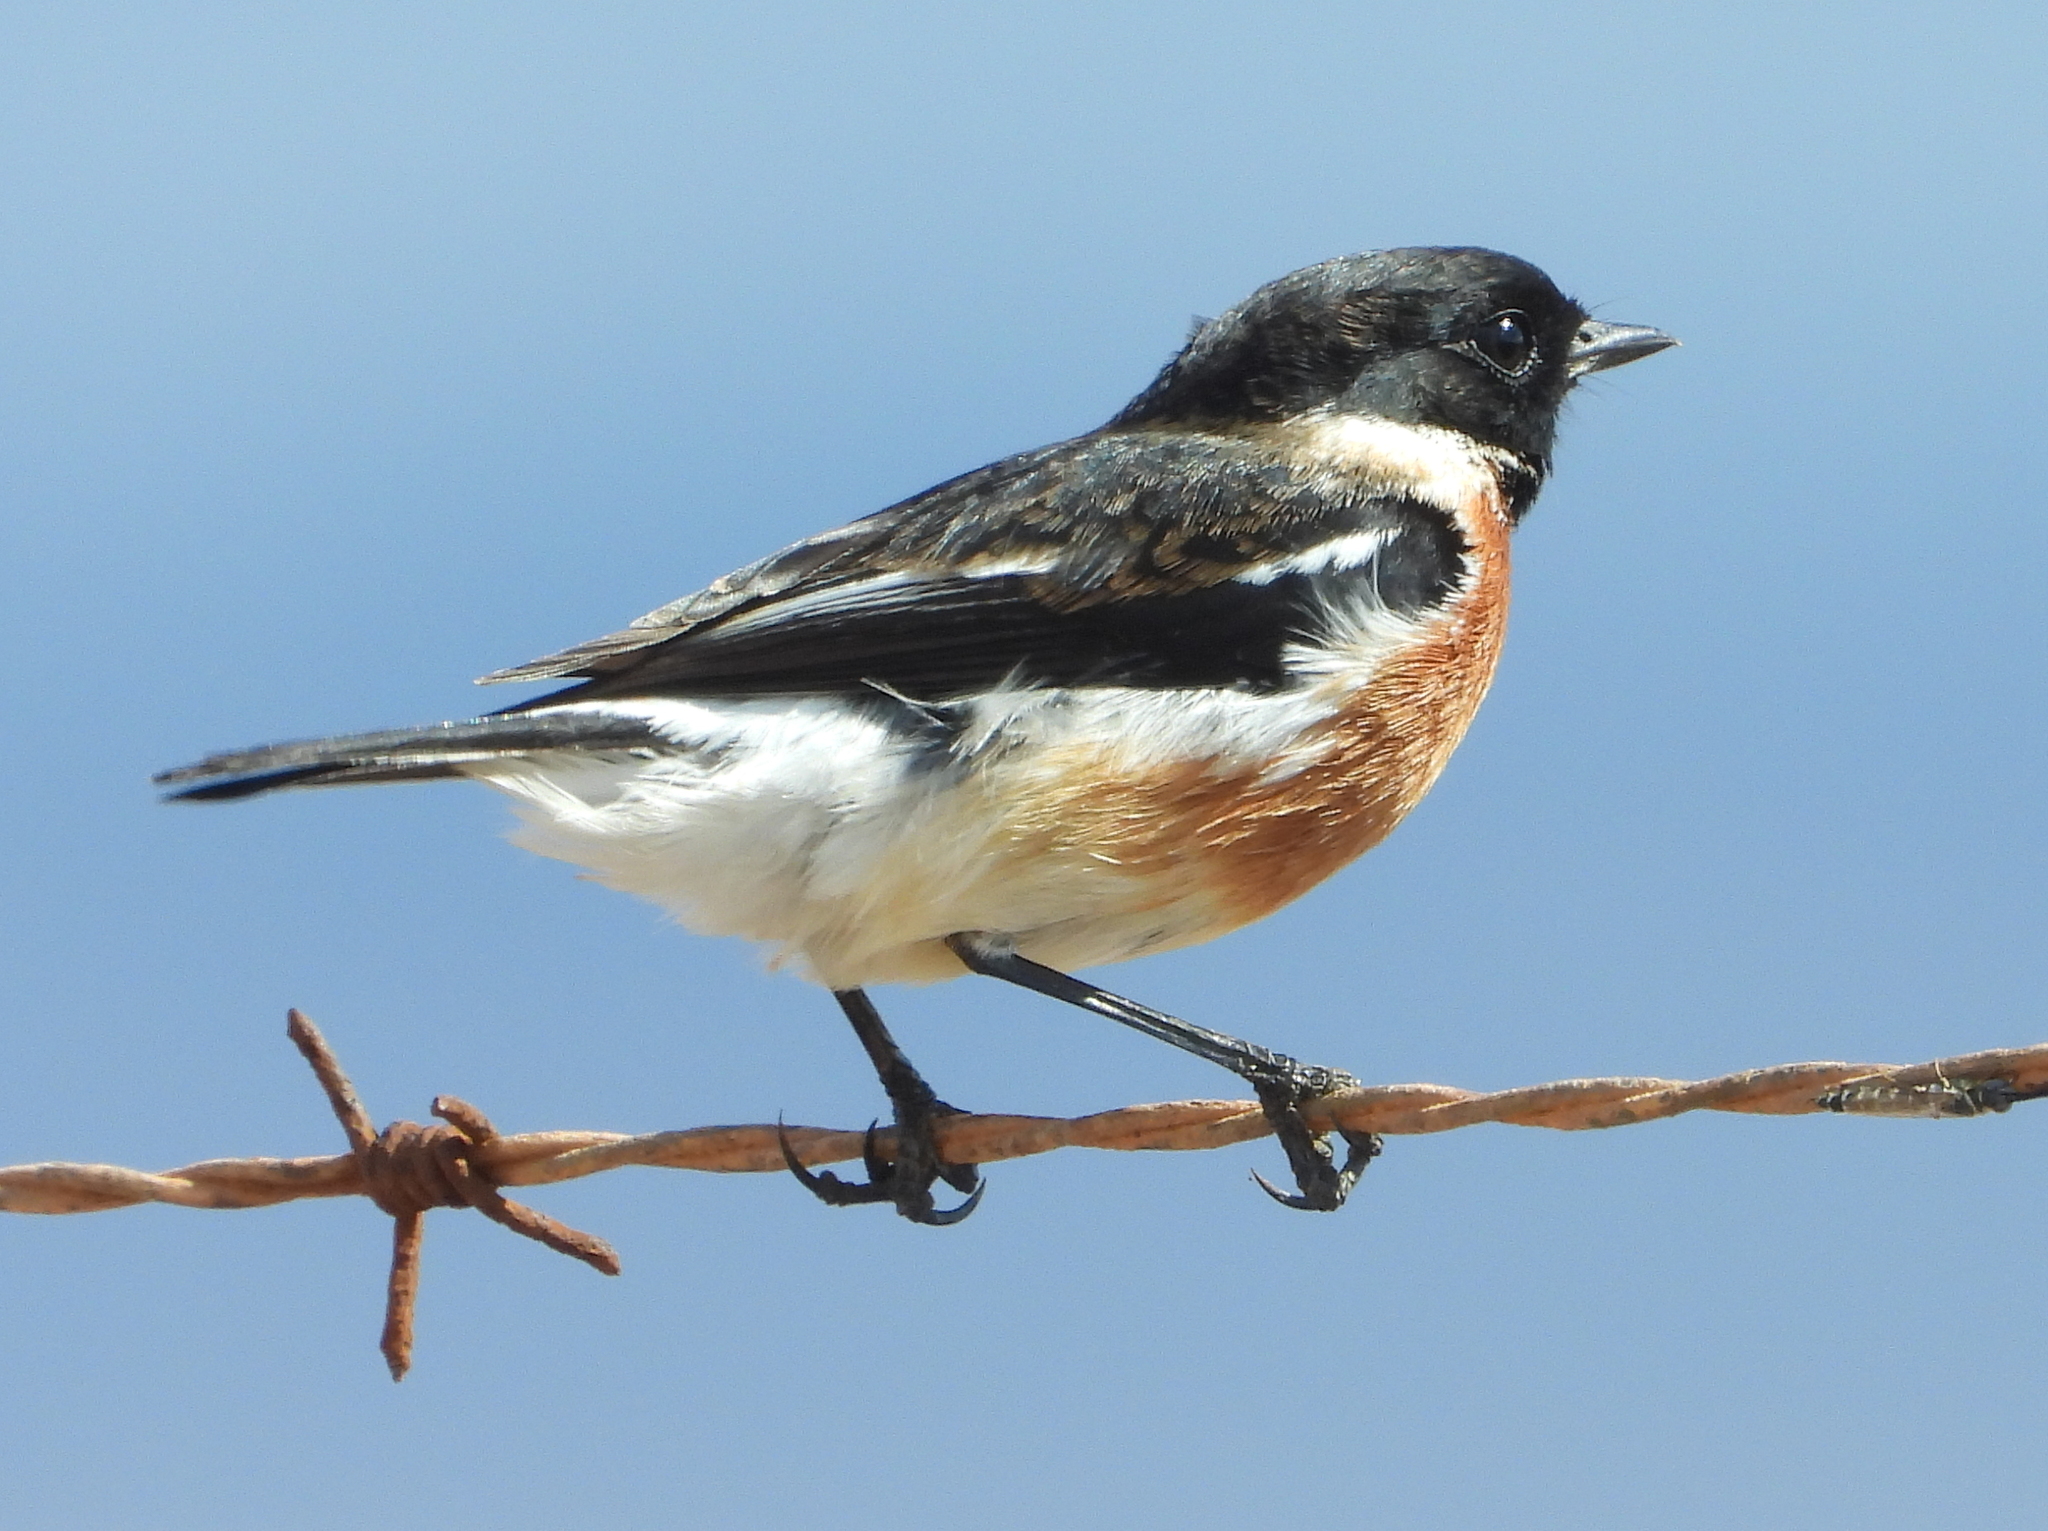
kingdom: Animalia
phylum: Chordata
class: Aves
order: Passeriformes
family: Muscicapidae
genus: Saxicola
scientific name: Saxicola torquatus
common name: African stonechat
